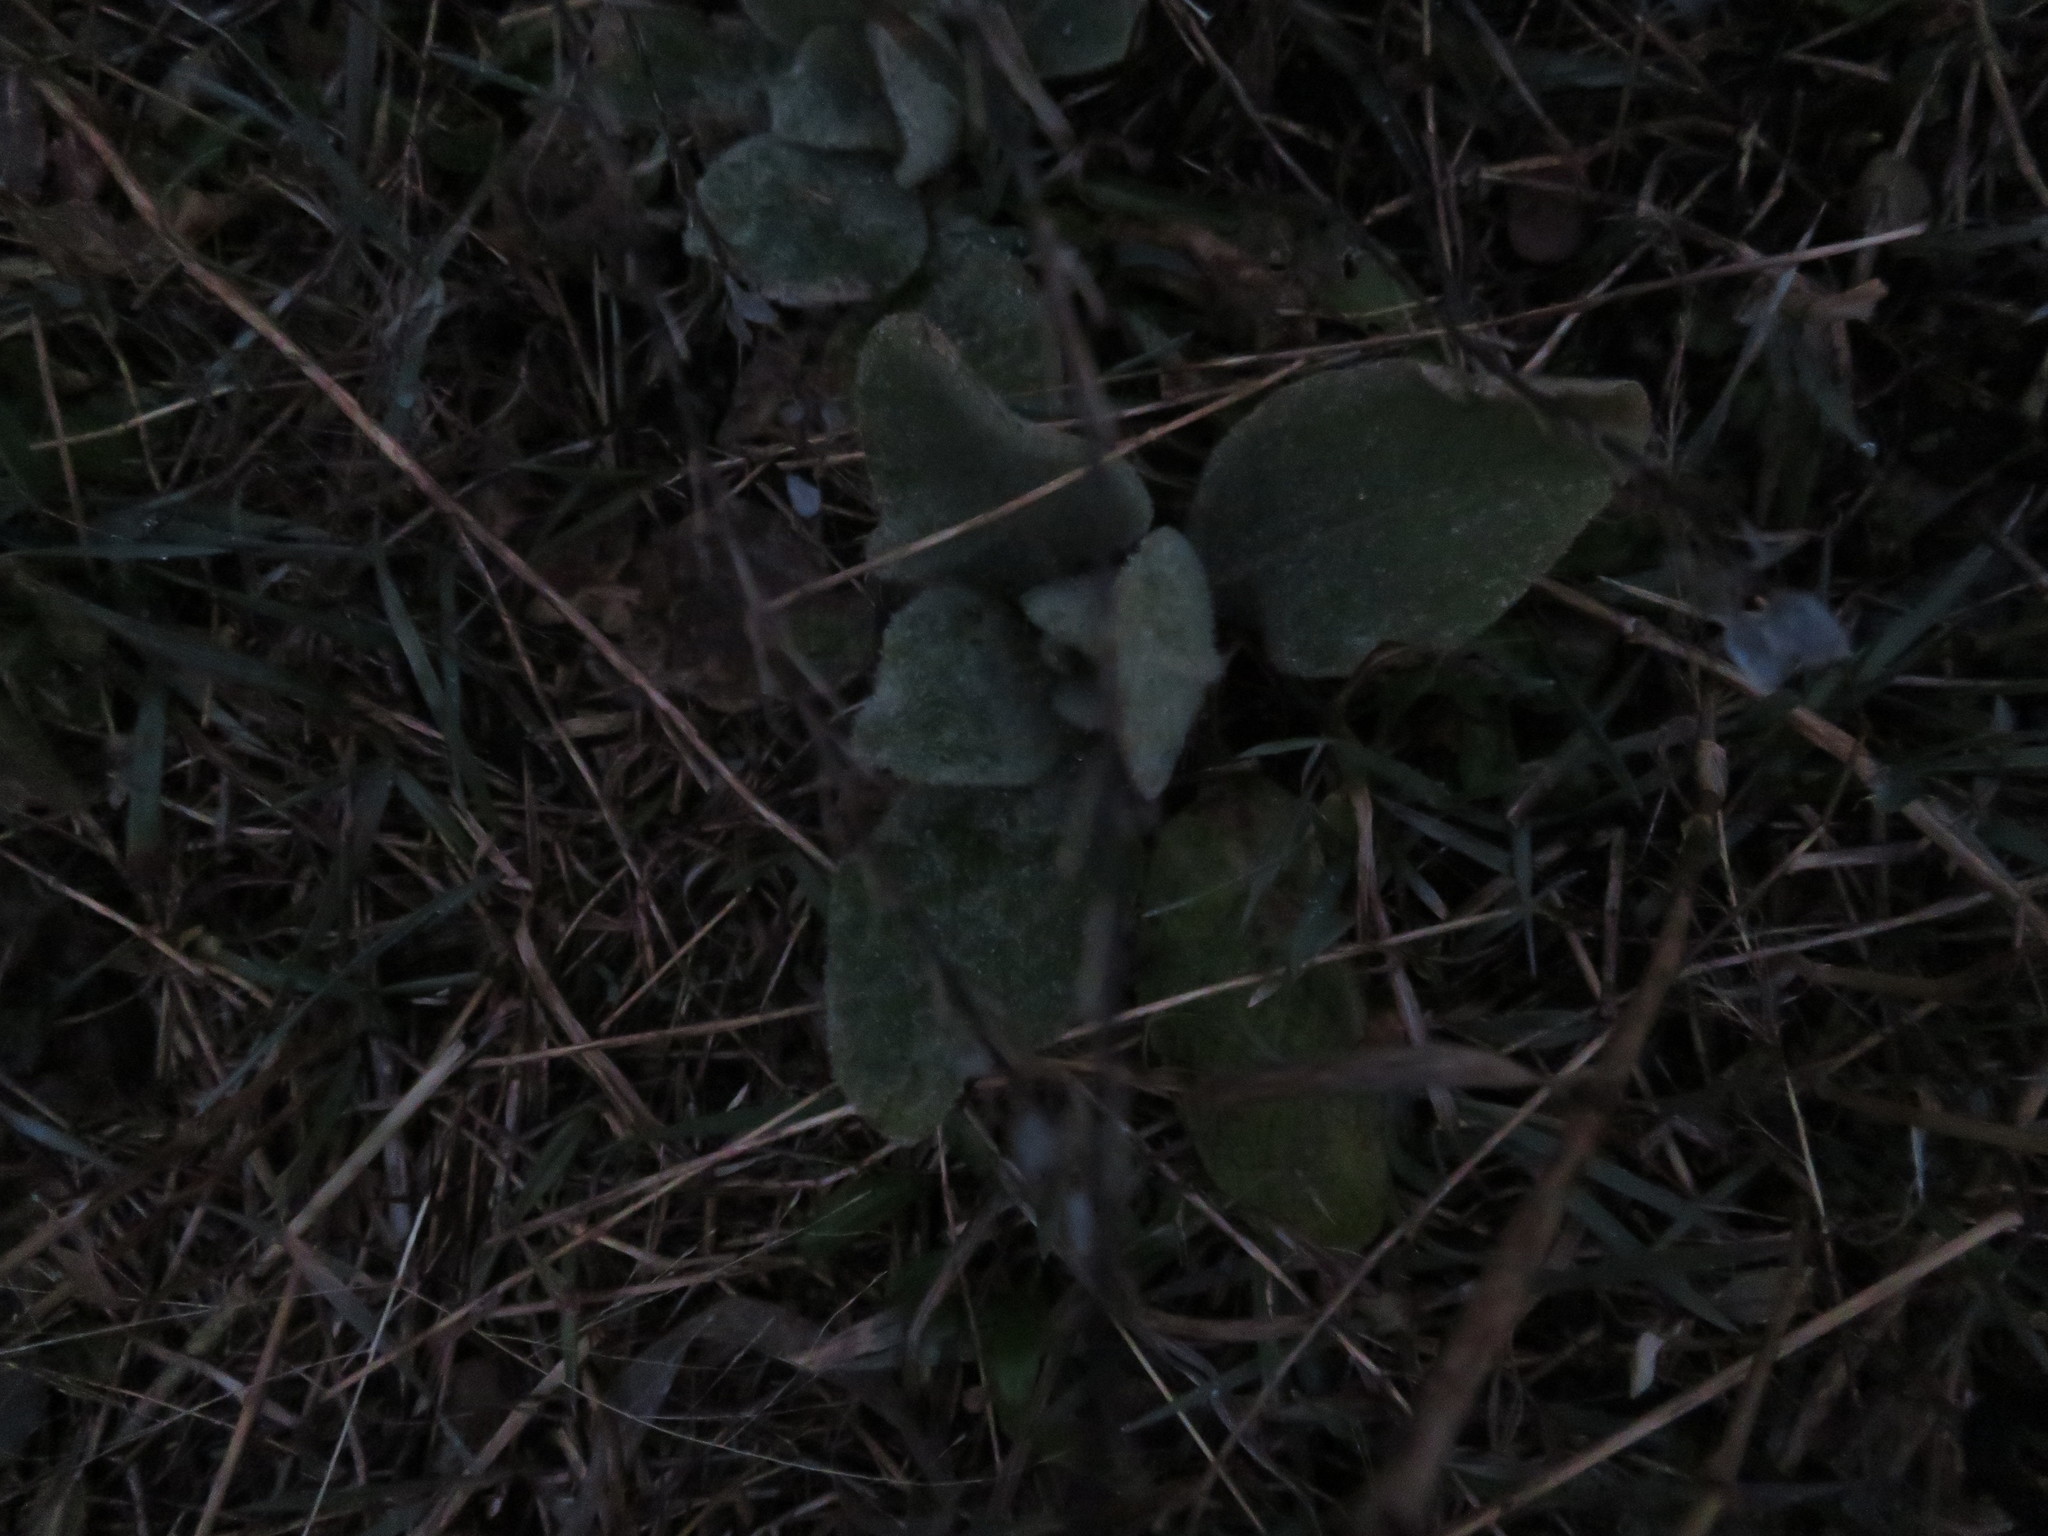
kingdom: Plantae
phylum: Tracheophyta
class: Magnoliopsida
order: Lamiales
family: Scrophulariaceae
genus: Verbascum
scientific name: Verbascum thapsus
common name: Common mullein
